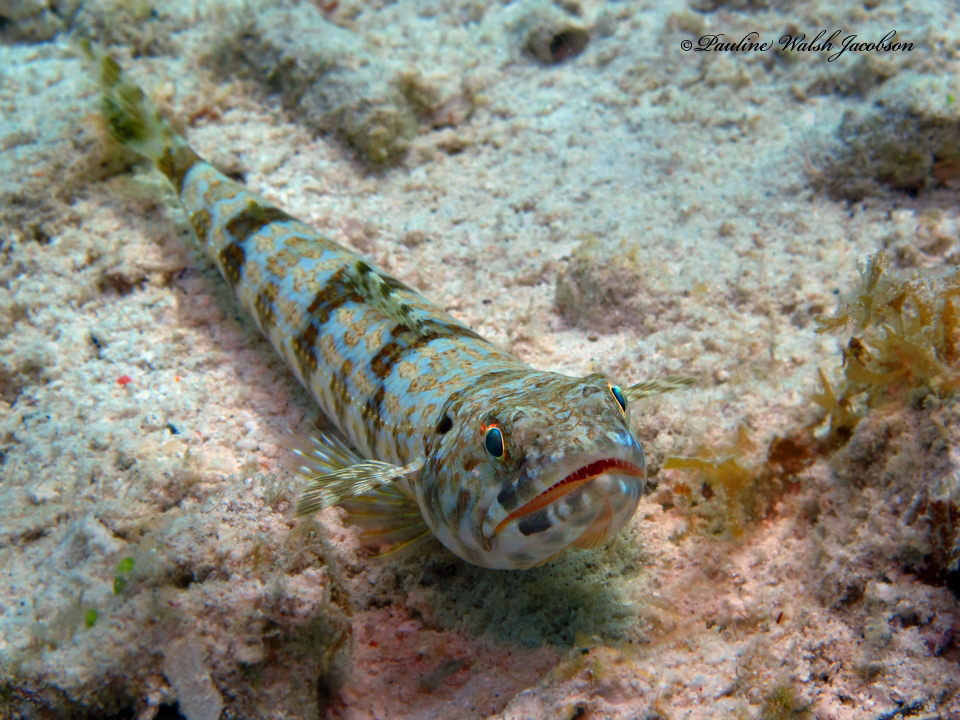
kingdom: Animalia
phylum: Chordata
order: Aulopiformes
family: Synodontidae
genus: Synodus
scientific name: Synodus intermedius
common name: Sand diver
